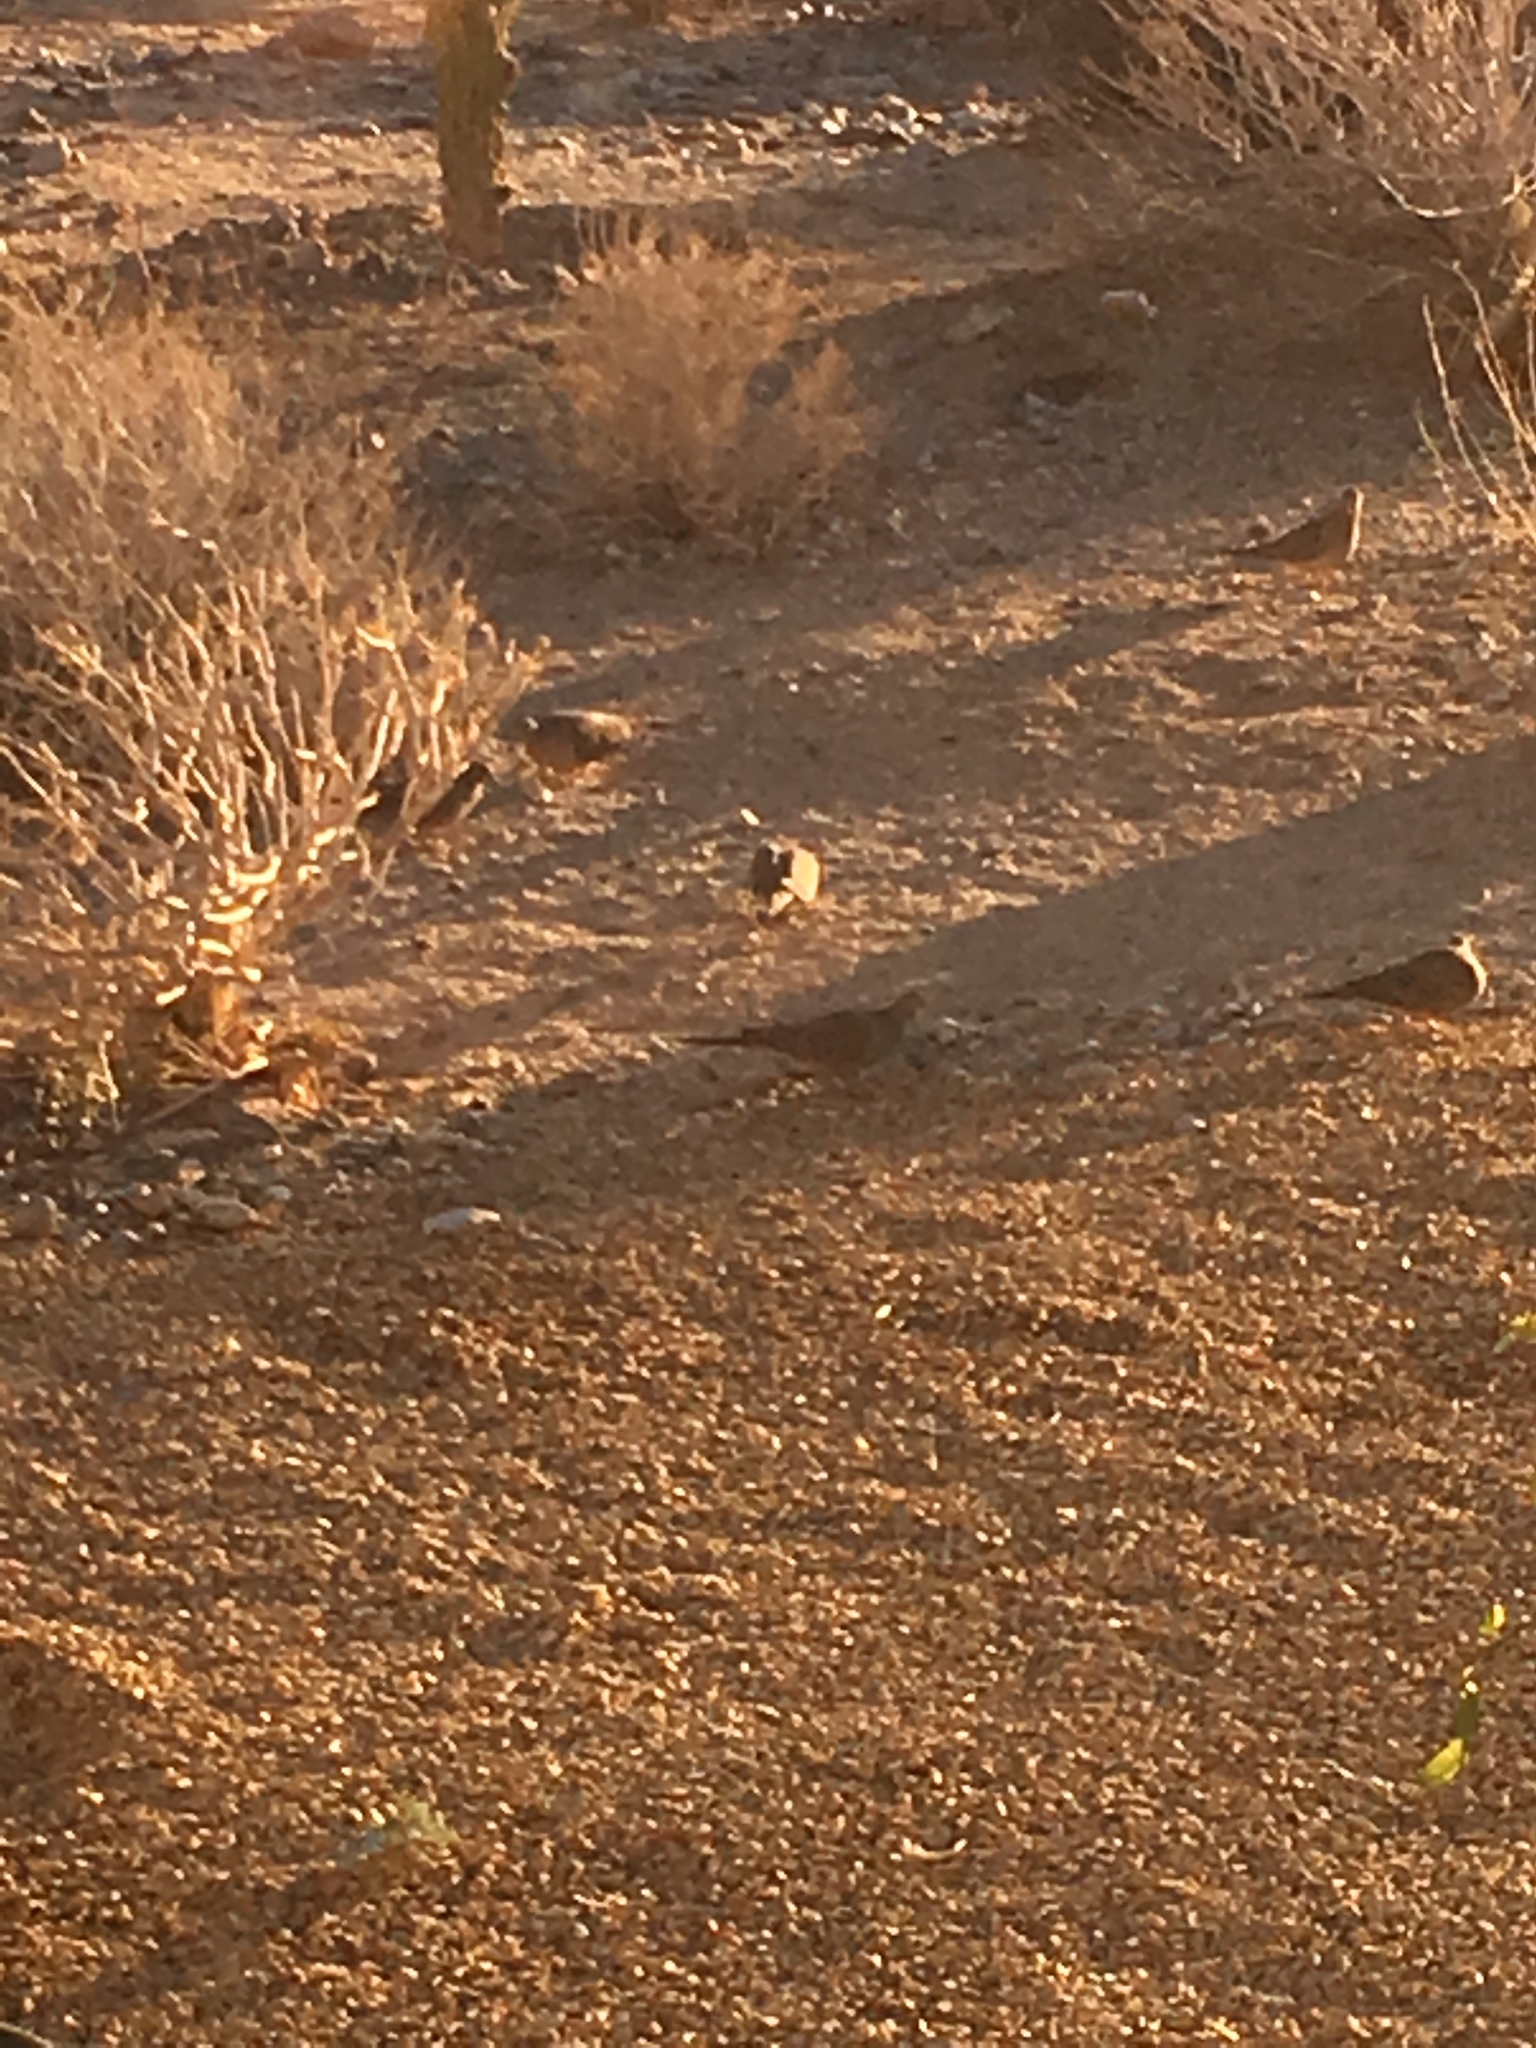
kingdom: Animalia
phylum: Chordata
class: Aves
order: Columbiformes
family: Columbidae
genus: Zenaida
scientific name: Zenaida macroura
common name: Mourning dove
